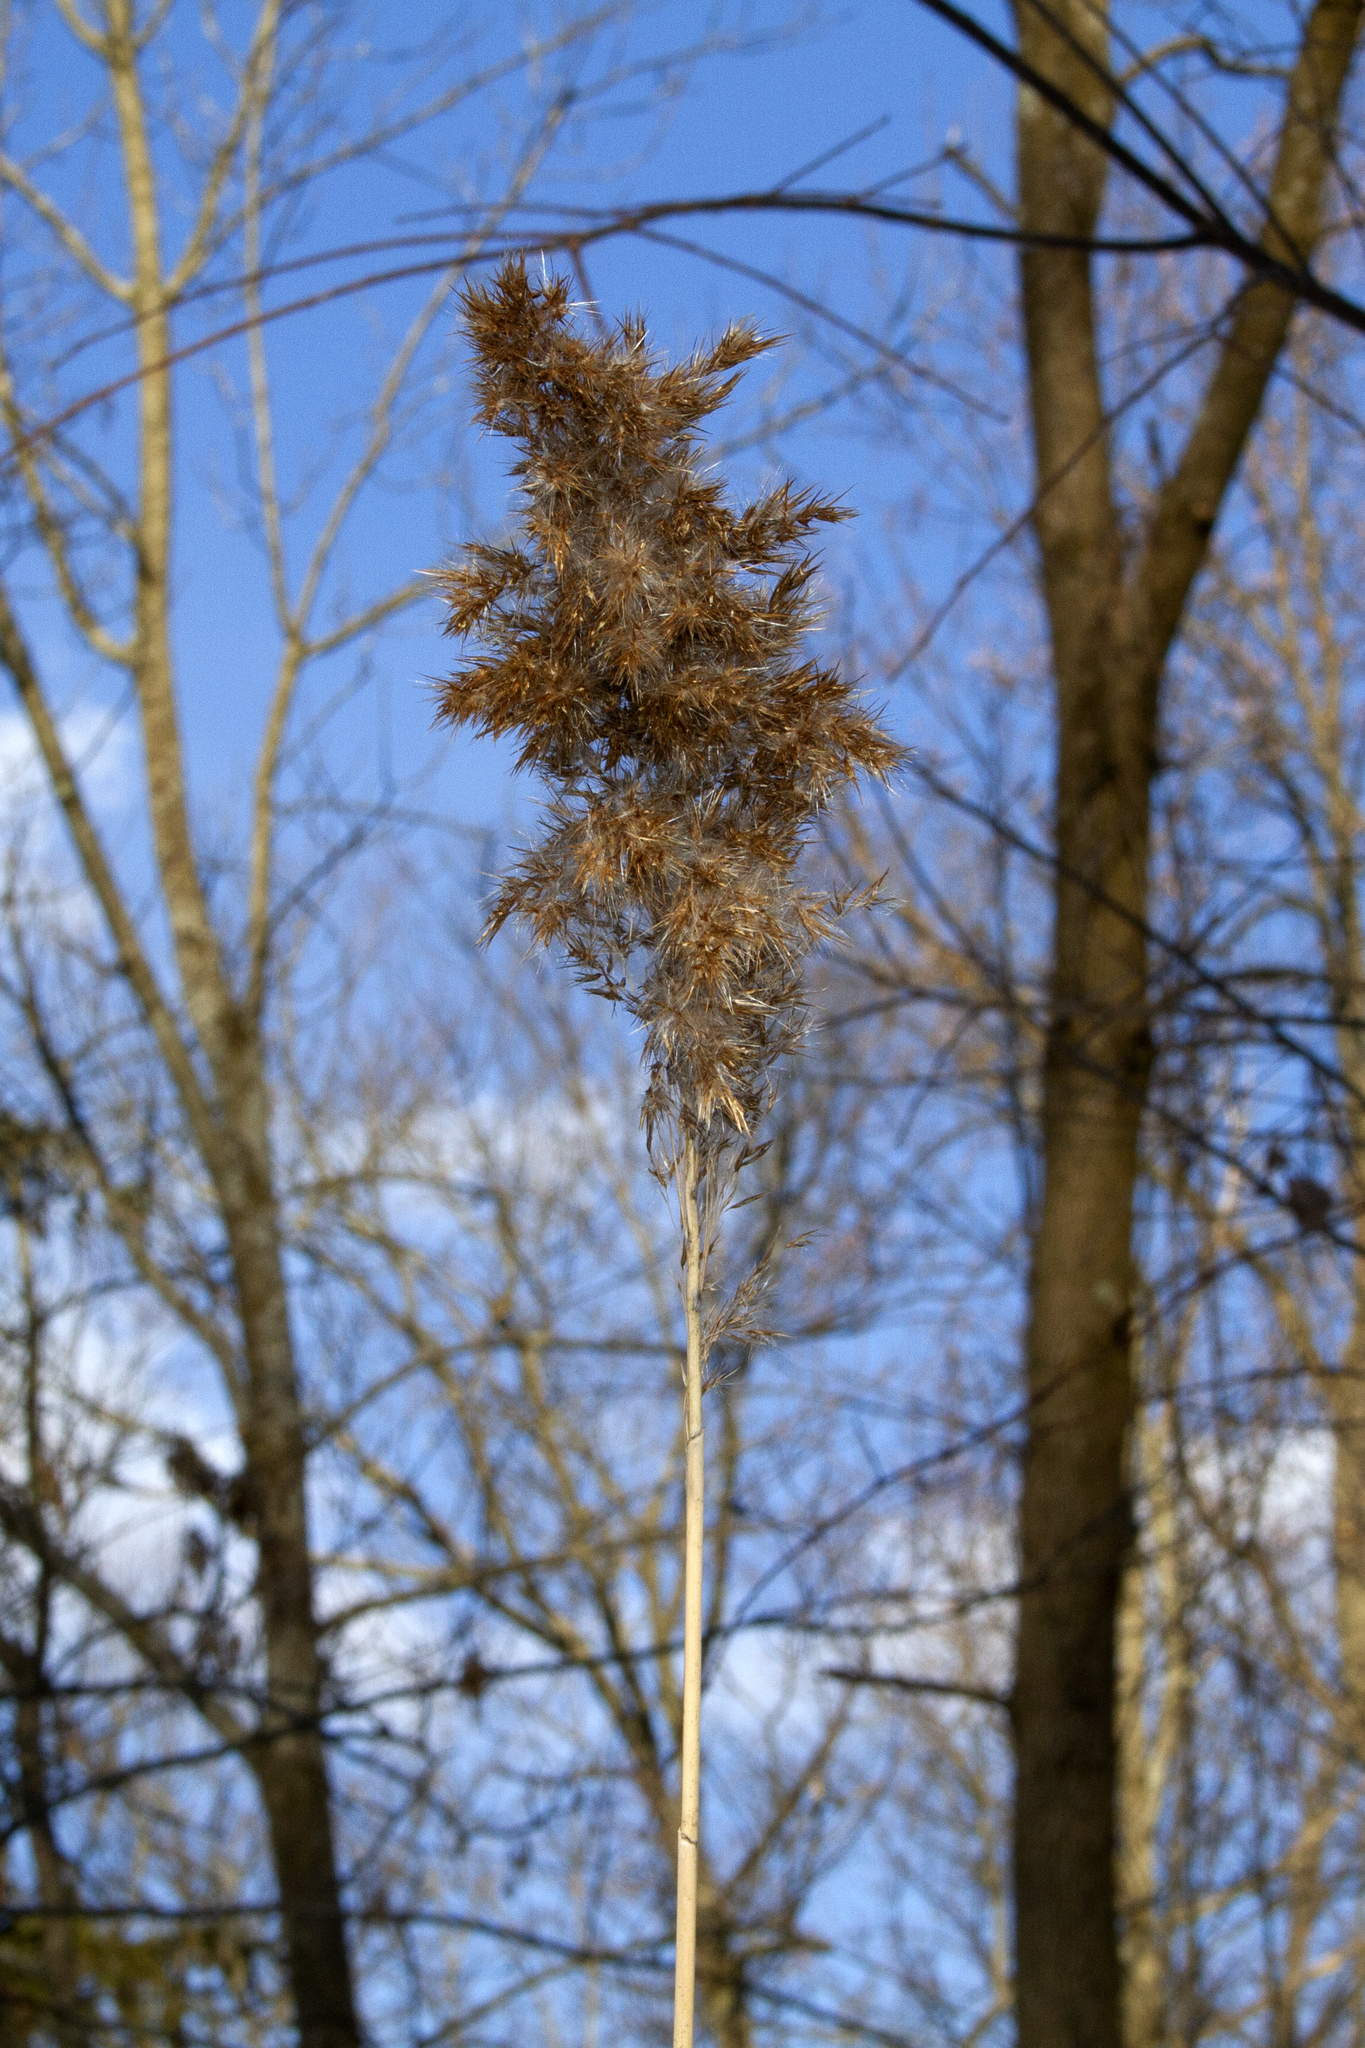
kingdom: Plantae
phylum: Tracheophyta
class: Liliopsida
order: Poales
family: Poaceae
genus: Phragmites
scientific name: Phragmites australis
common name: Common reed
